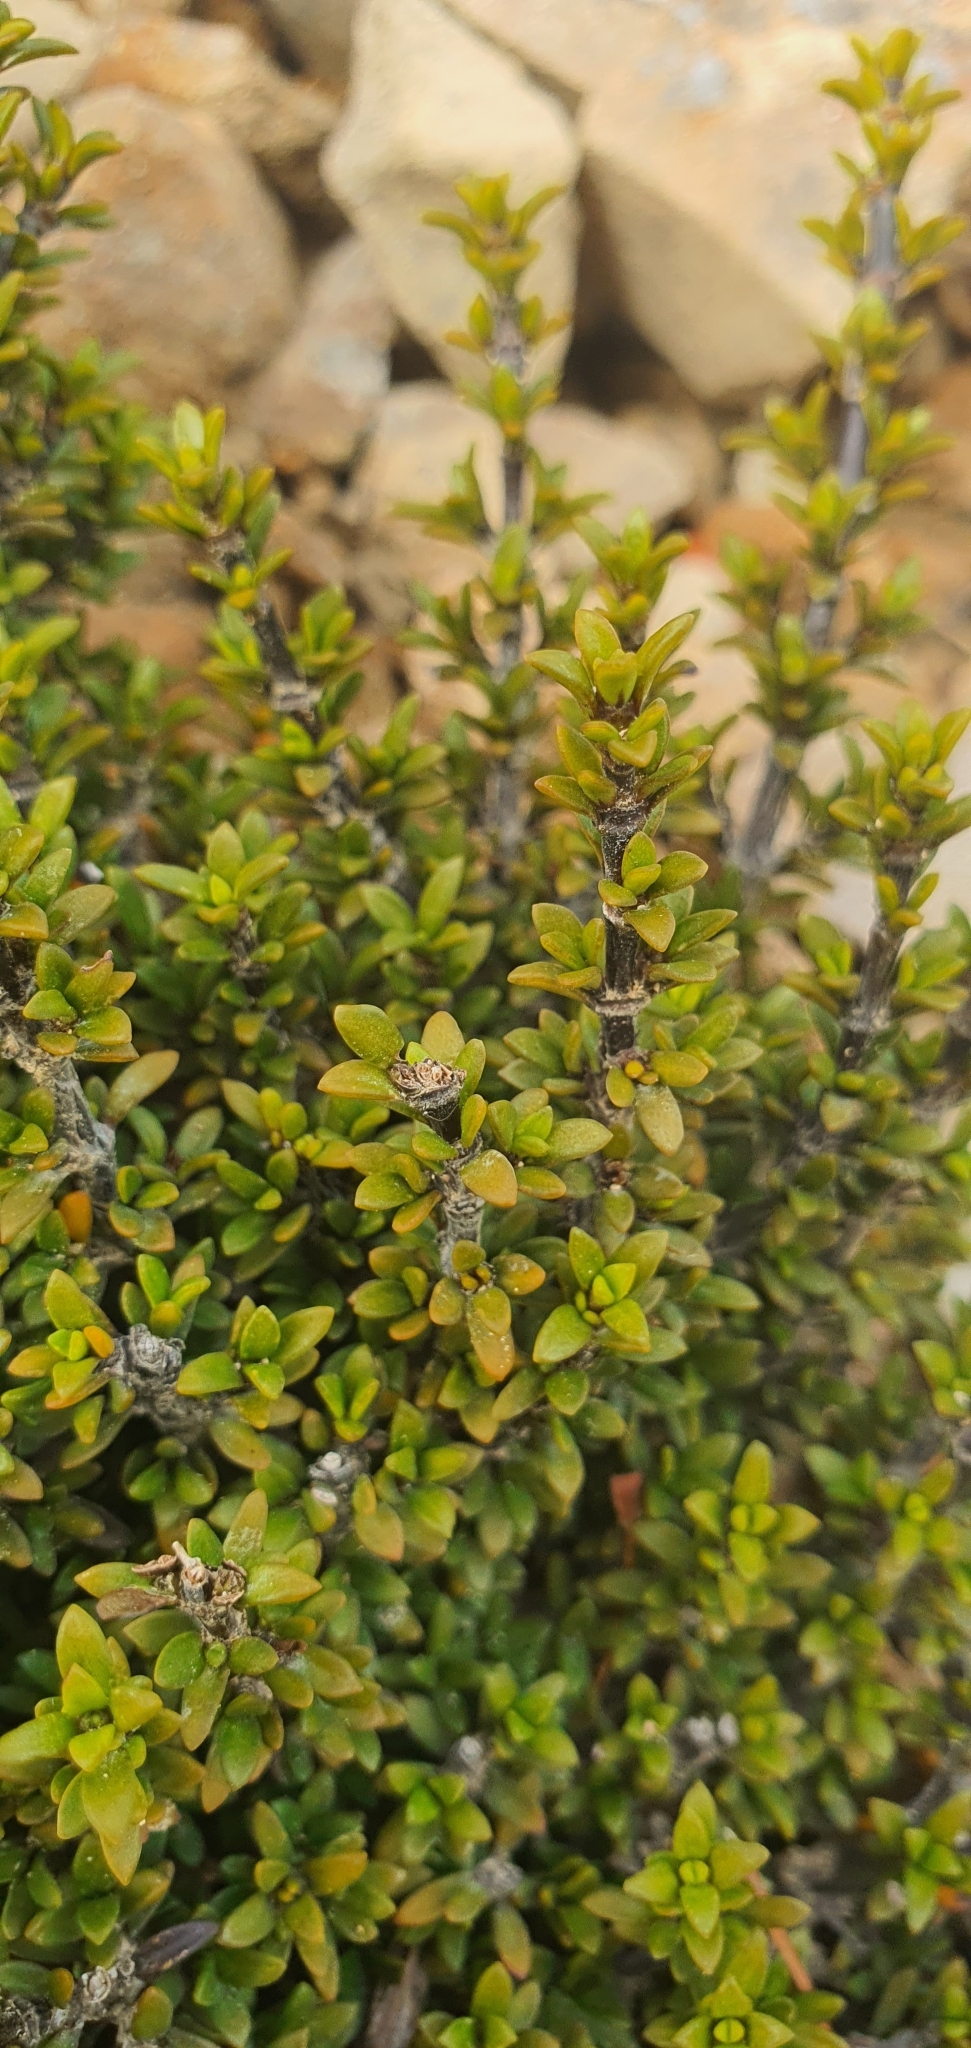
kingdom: Plantae
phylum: Tracheophyta
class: Magnoliopsida
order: Gentianales
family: Rubiaceae
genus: Coprosma
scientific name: Coprosma fowerakeri
